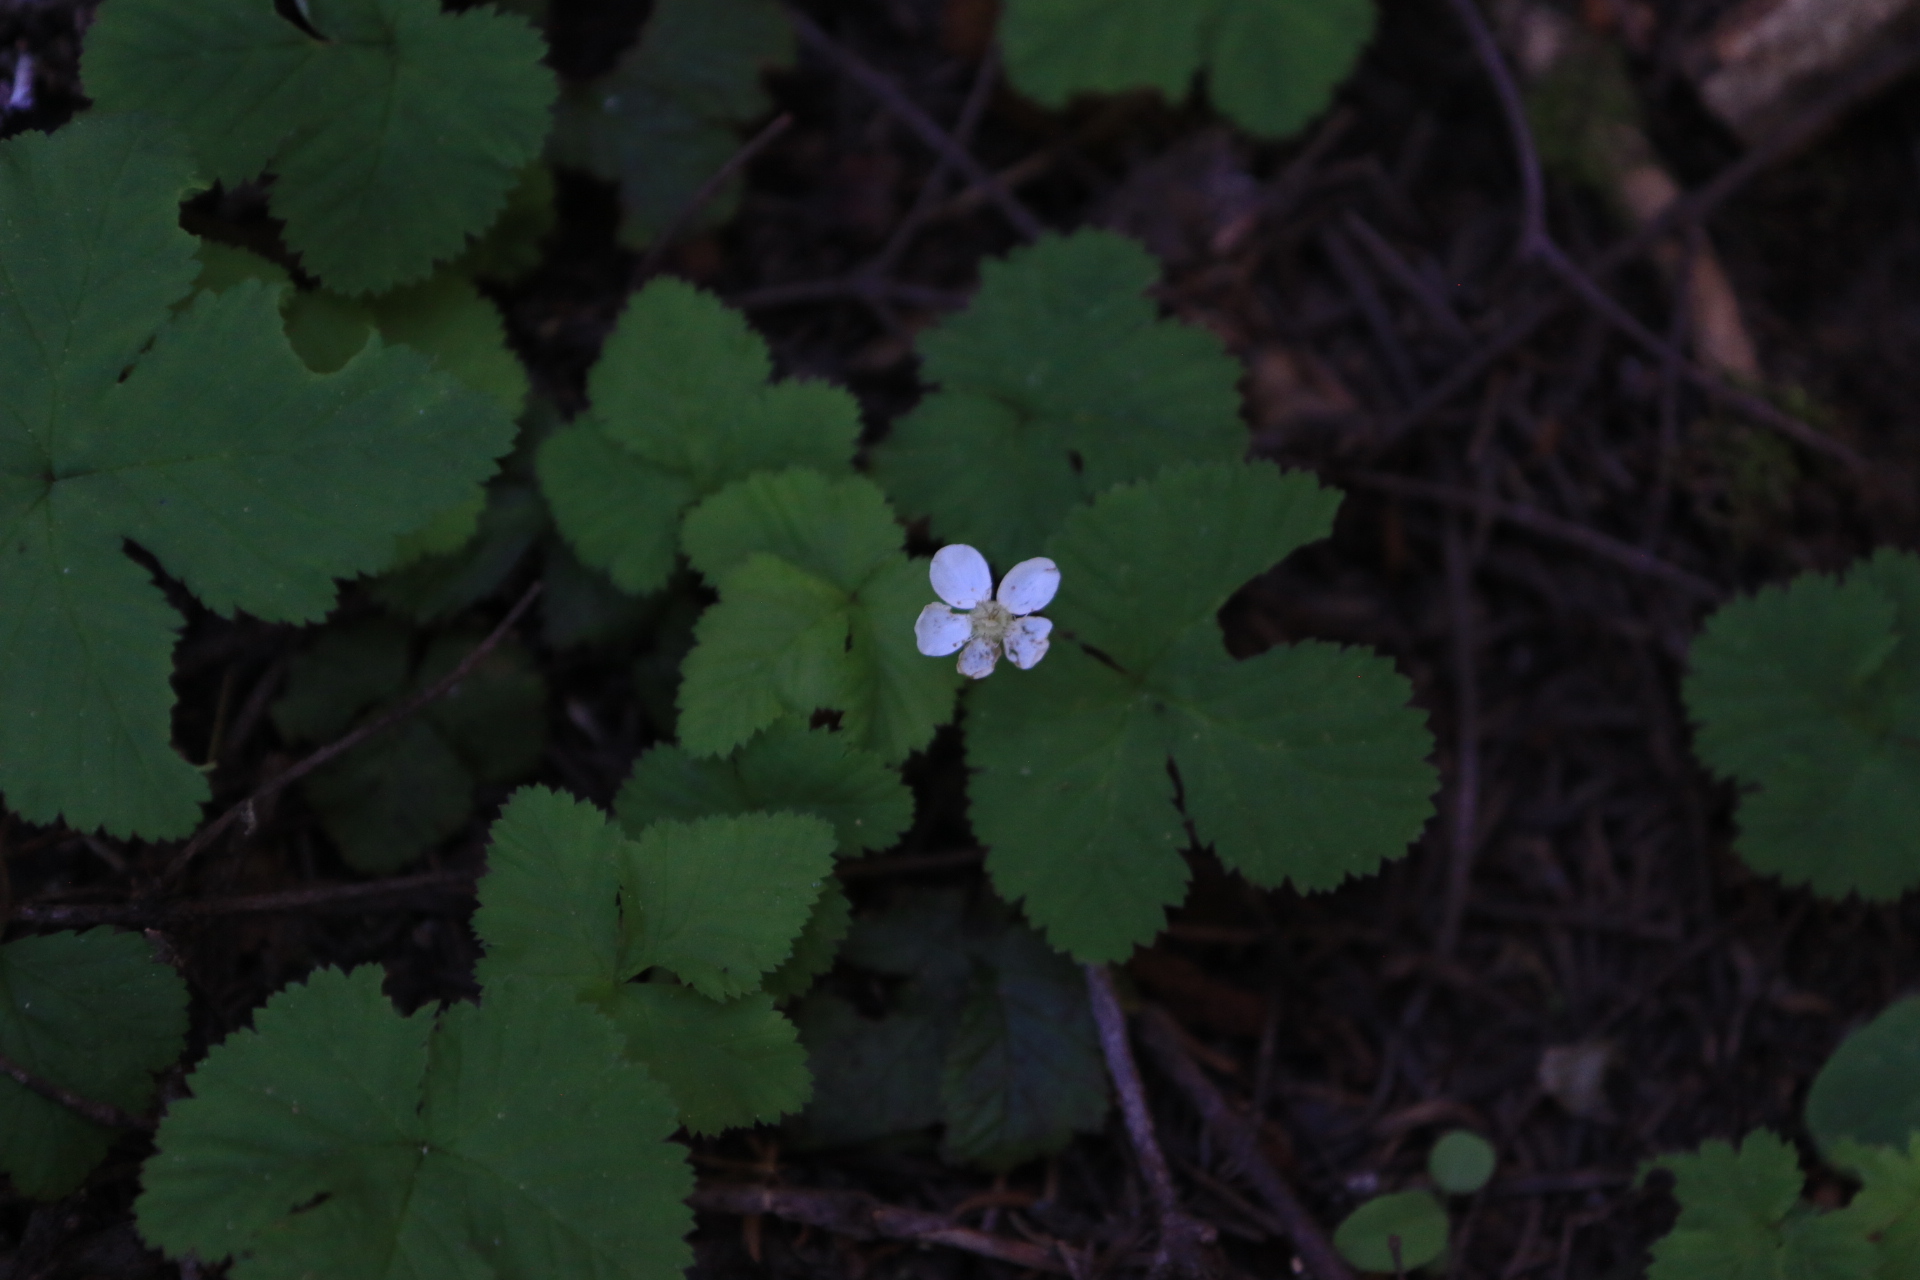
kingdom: Plantae
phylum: Tracheophyta
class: Magnoliopsida
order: Rosales
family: Rosaceae
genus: Rubus
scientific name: Rubus lasiococcus
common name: Dwarf bramble
